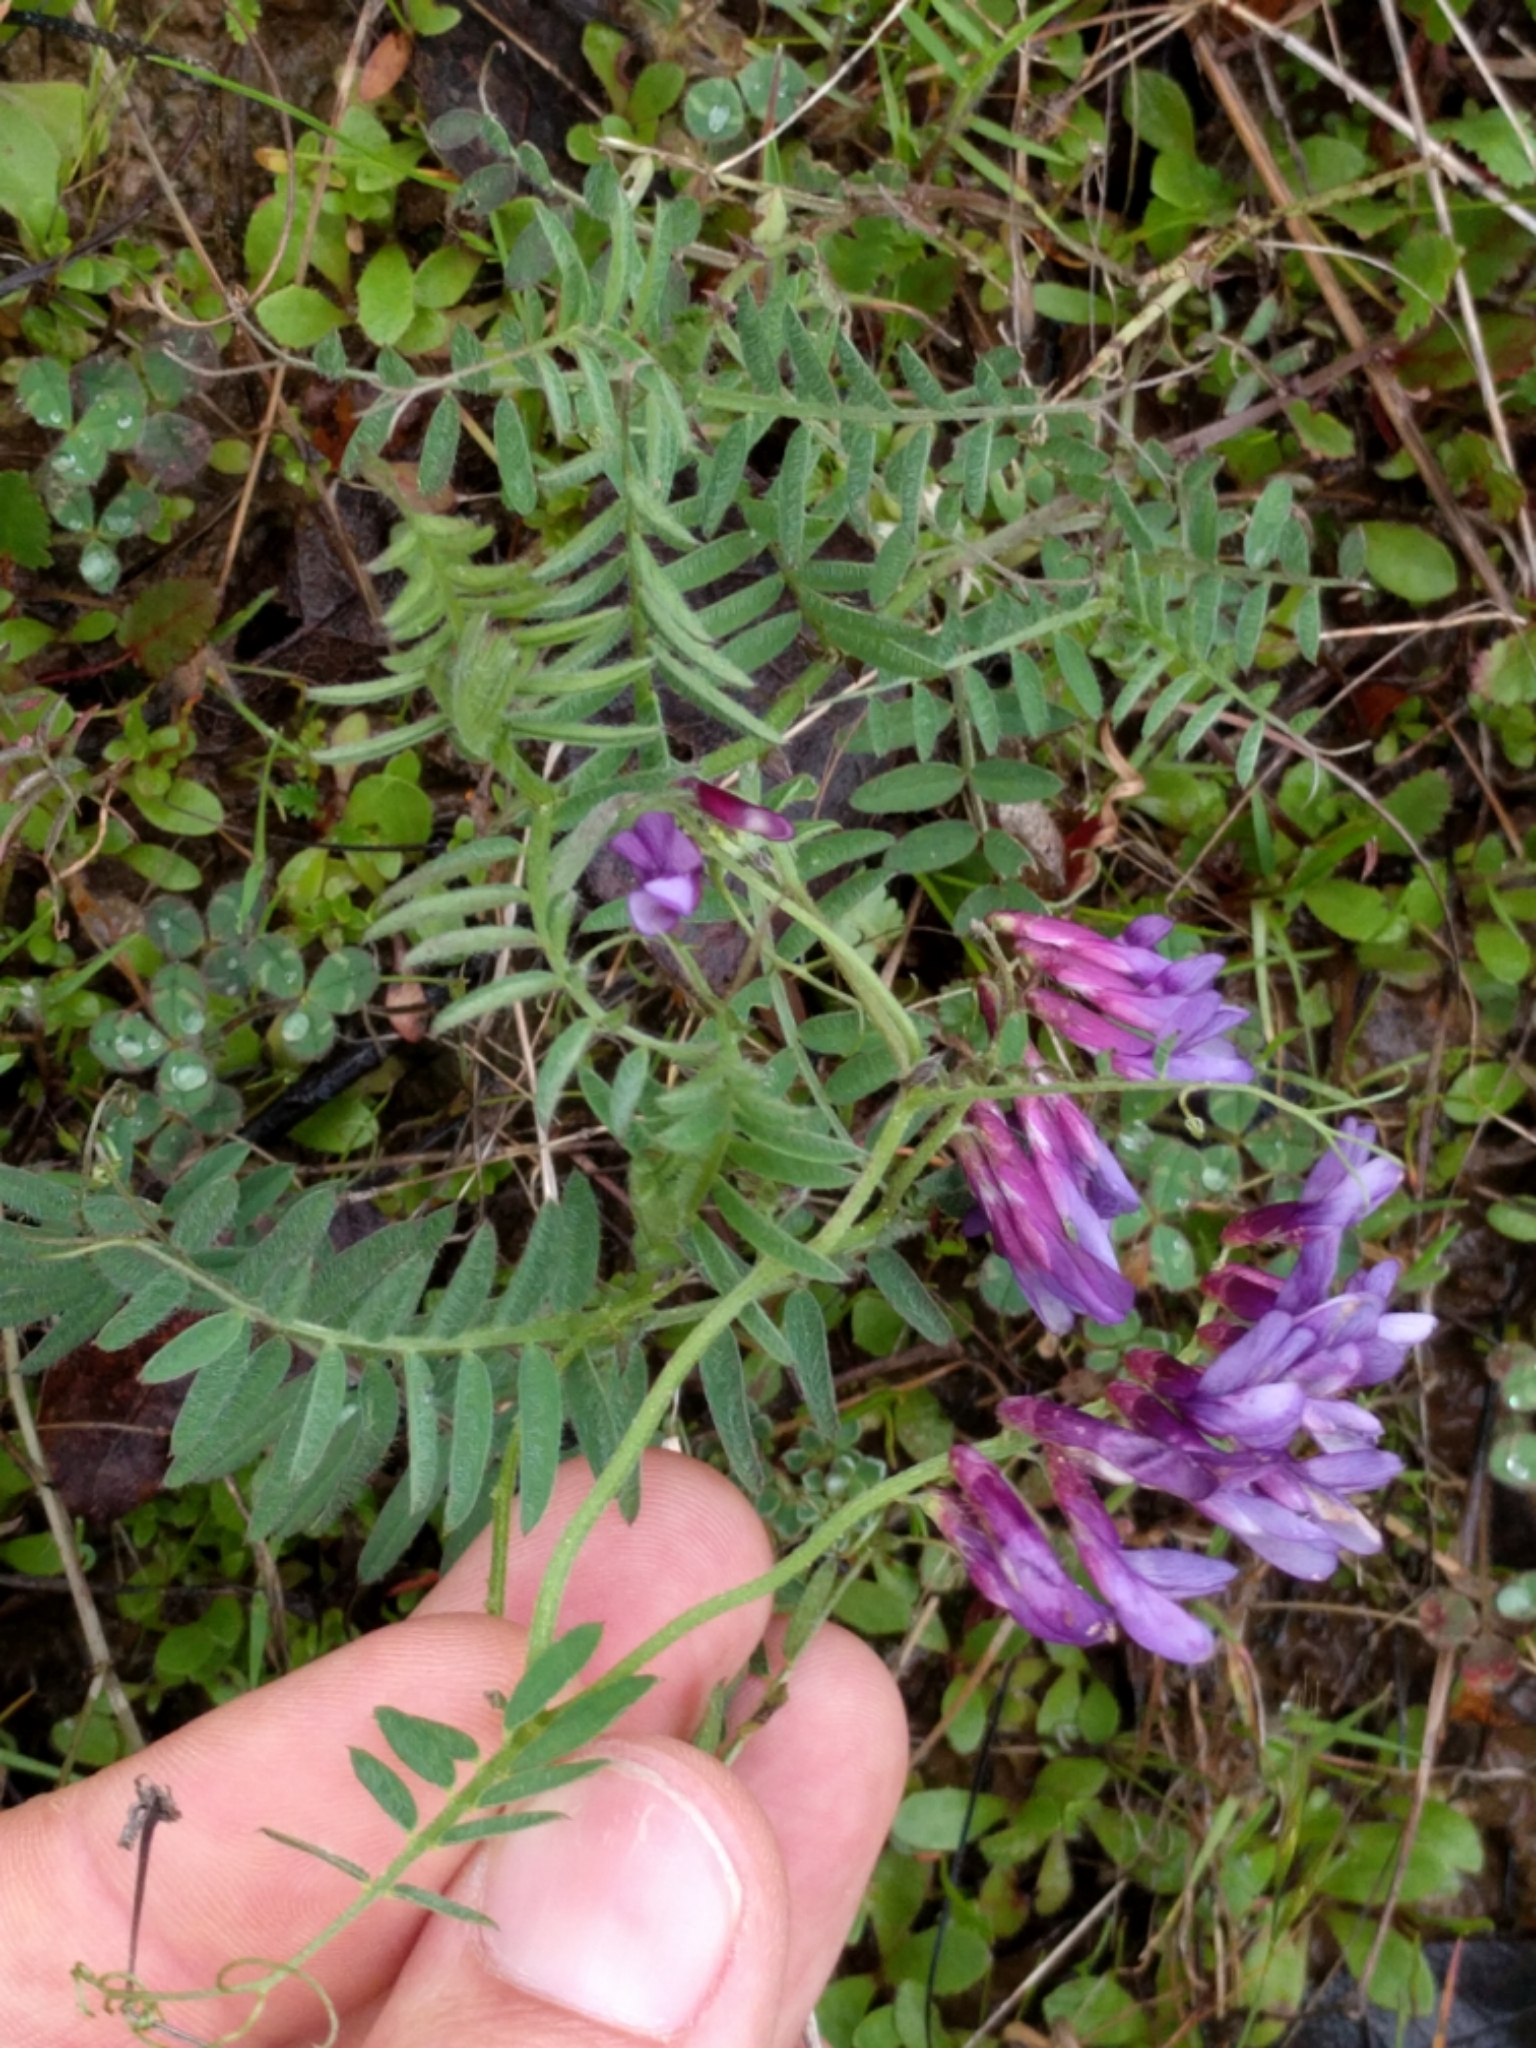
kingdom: Plantae
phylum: Tracheophyta
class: Magnoliopsida
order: Fabales
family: Fabaceae
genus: Vicia
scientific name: Vicia villosa
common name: Fodder vetch
